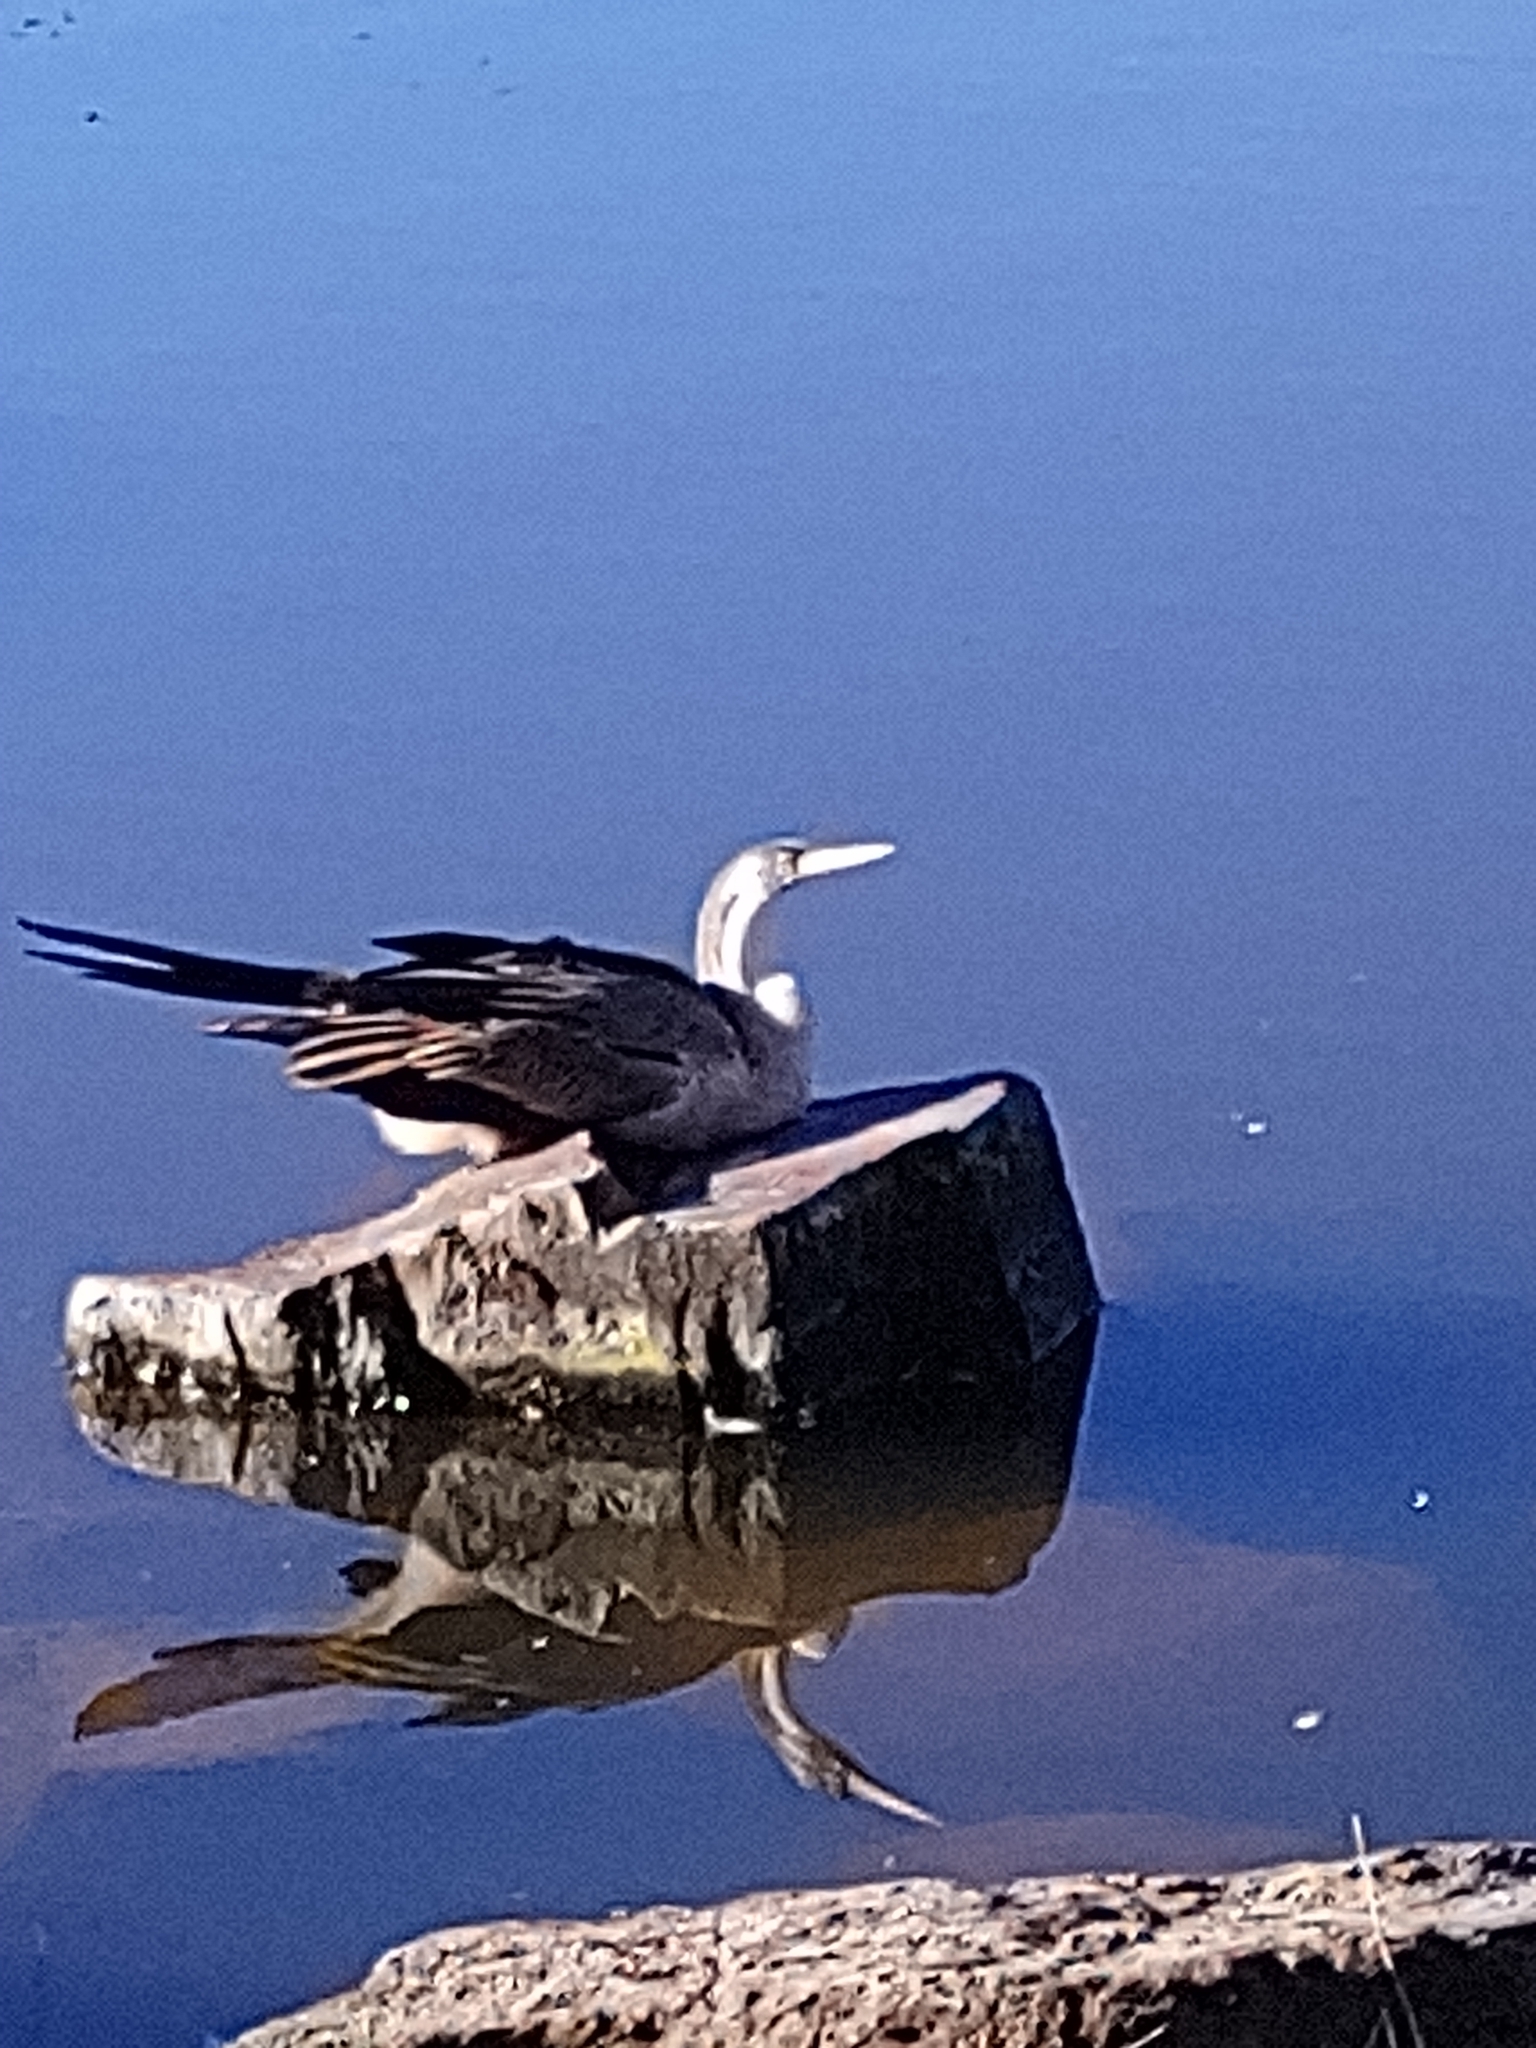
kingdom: Animalia
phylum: Chordata
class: Aves
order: Suliformes
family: Anhingidae
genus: Anhinga
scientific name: Anhinga novaehollandiae
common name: Australasian darter
